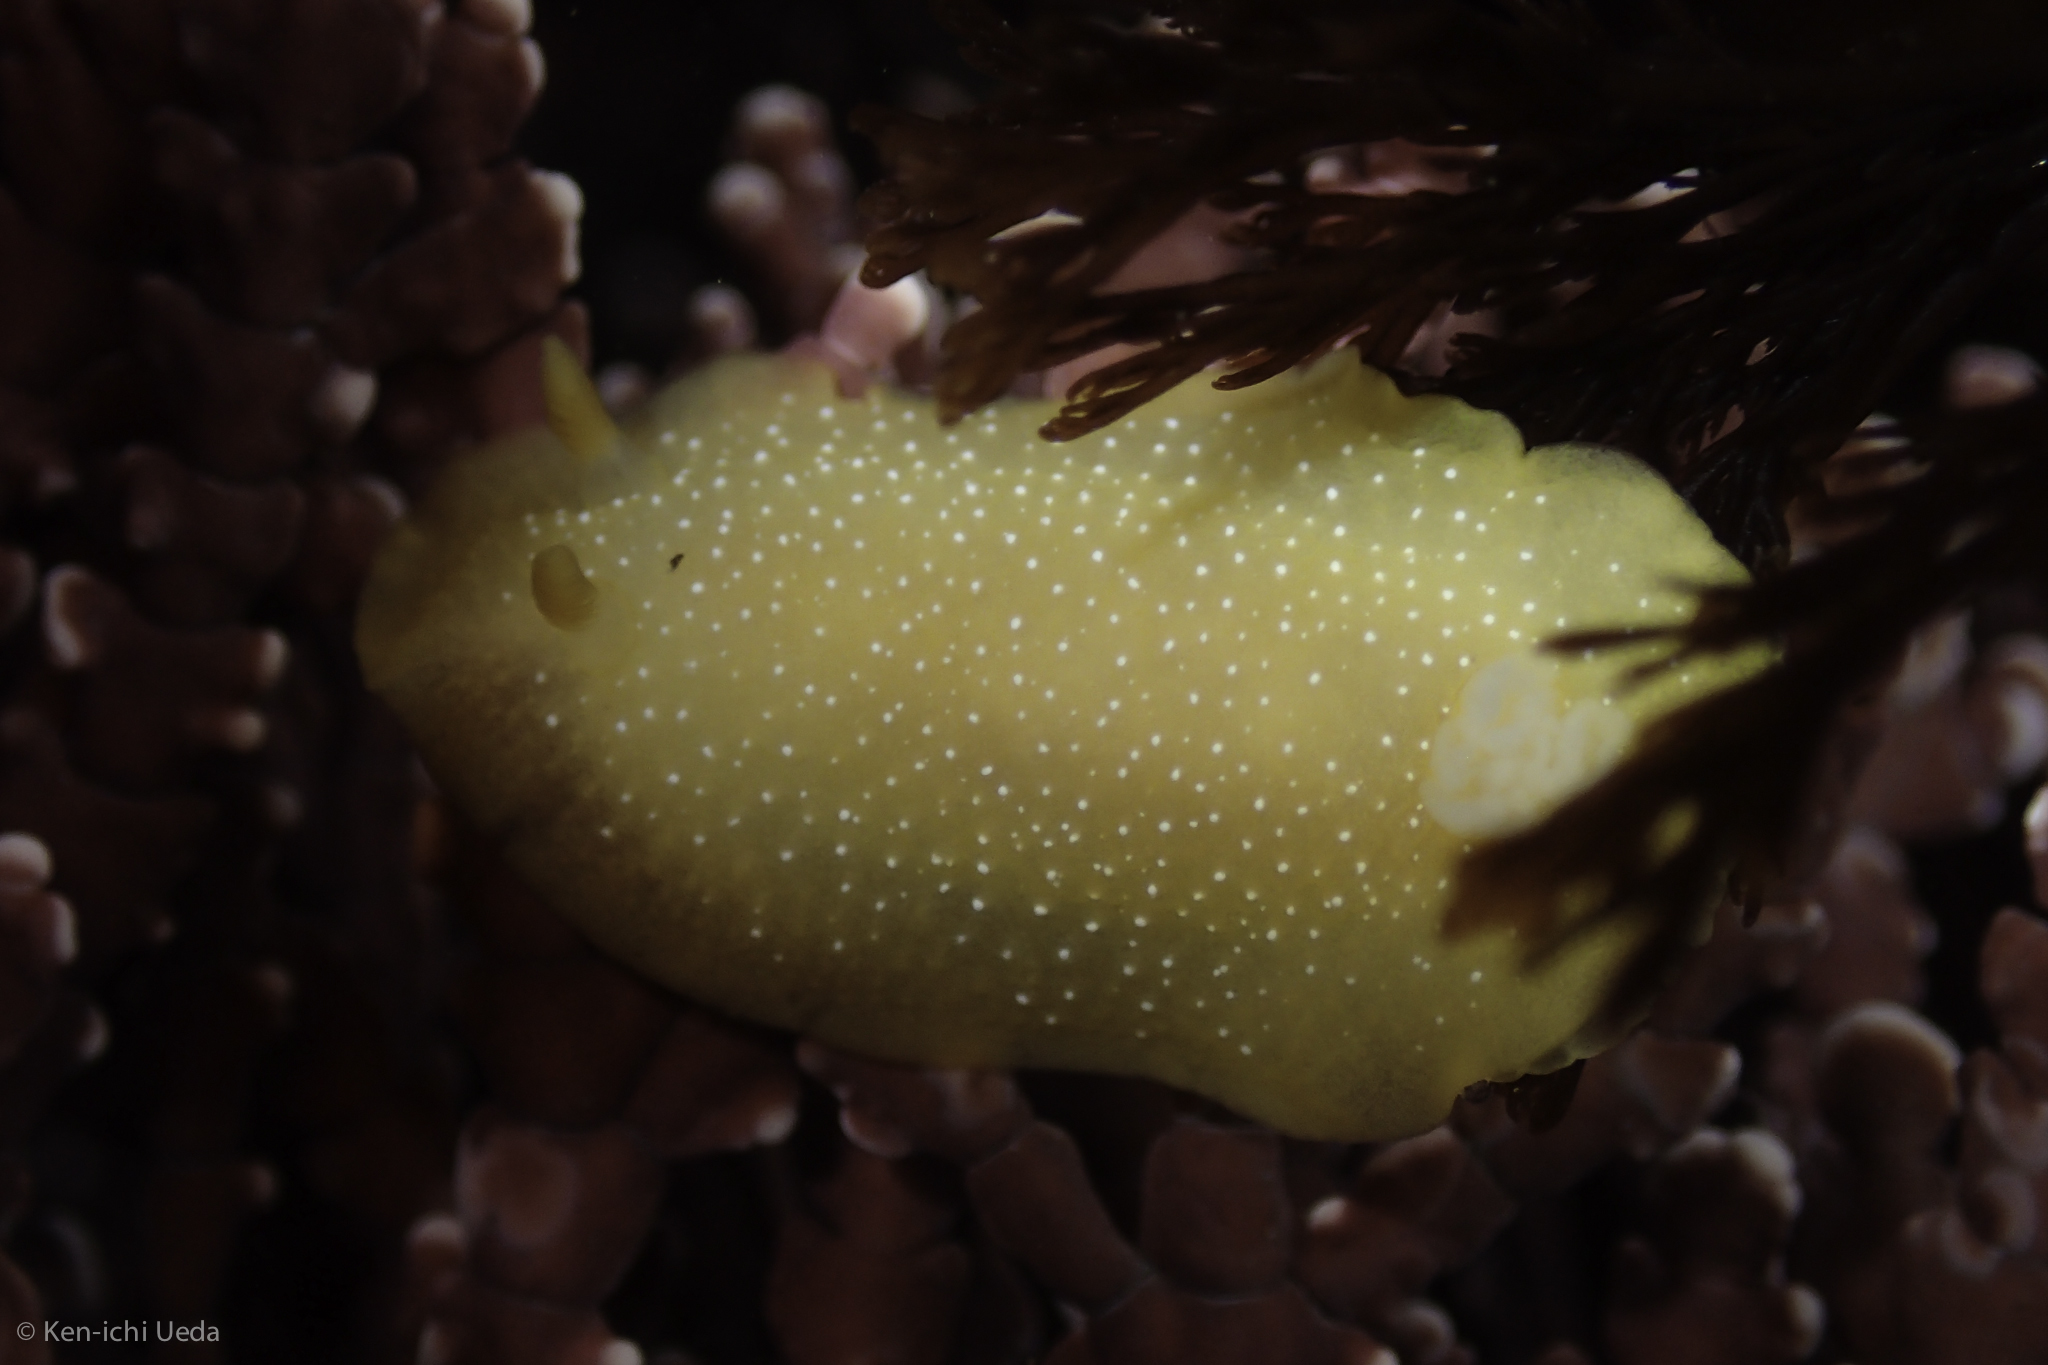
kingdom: Animalia
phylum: Mollusca
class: Gastropoda
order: Nudibranchia
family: Dendrodorididae
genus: Doriopsilla
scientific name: Doriopsilla fulva
